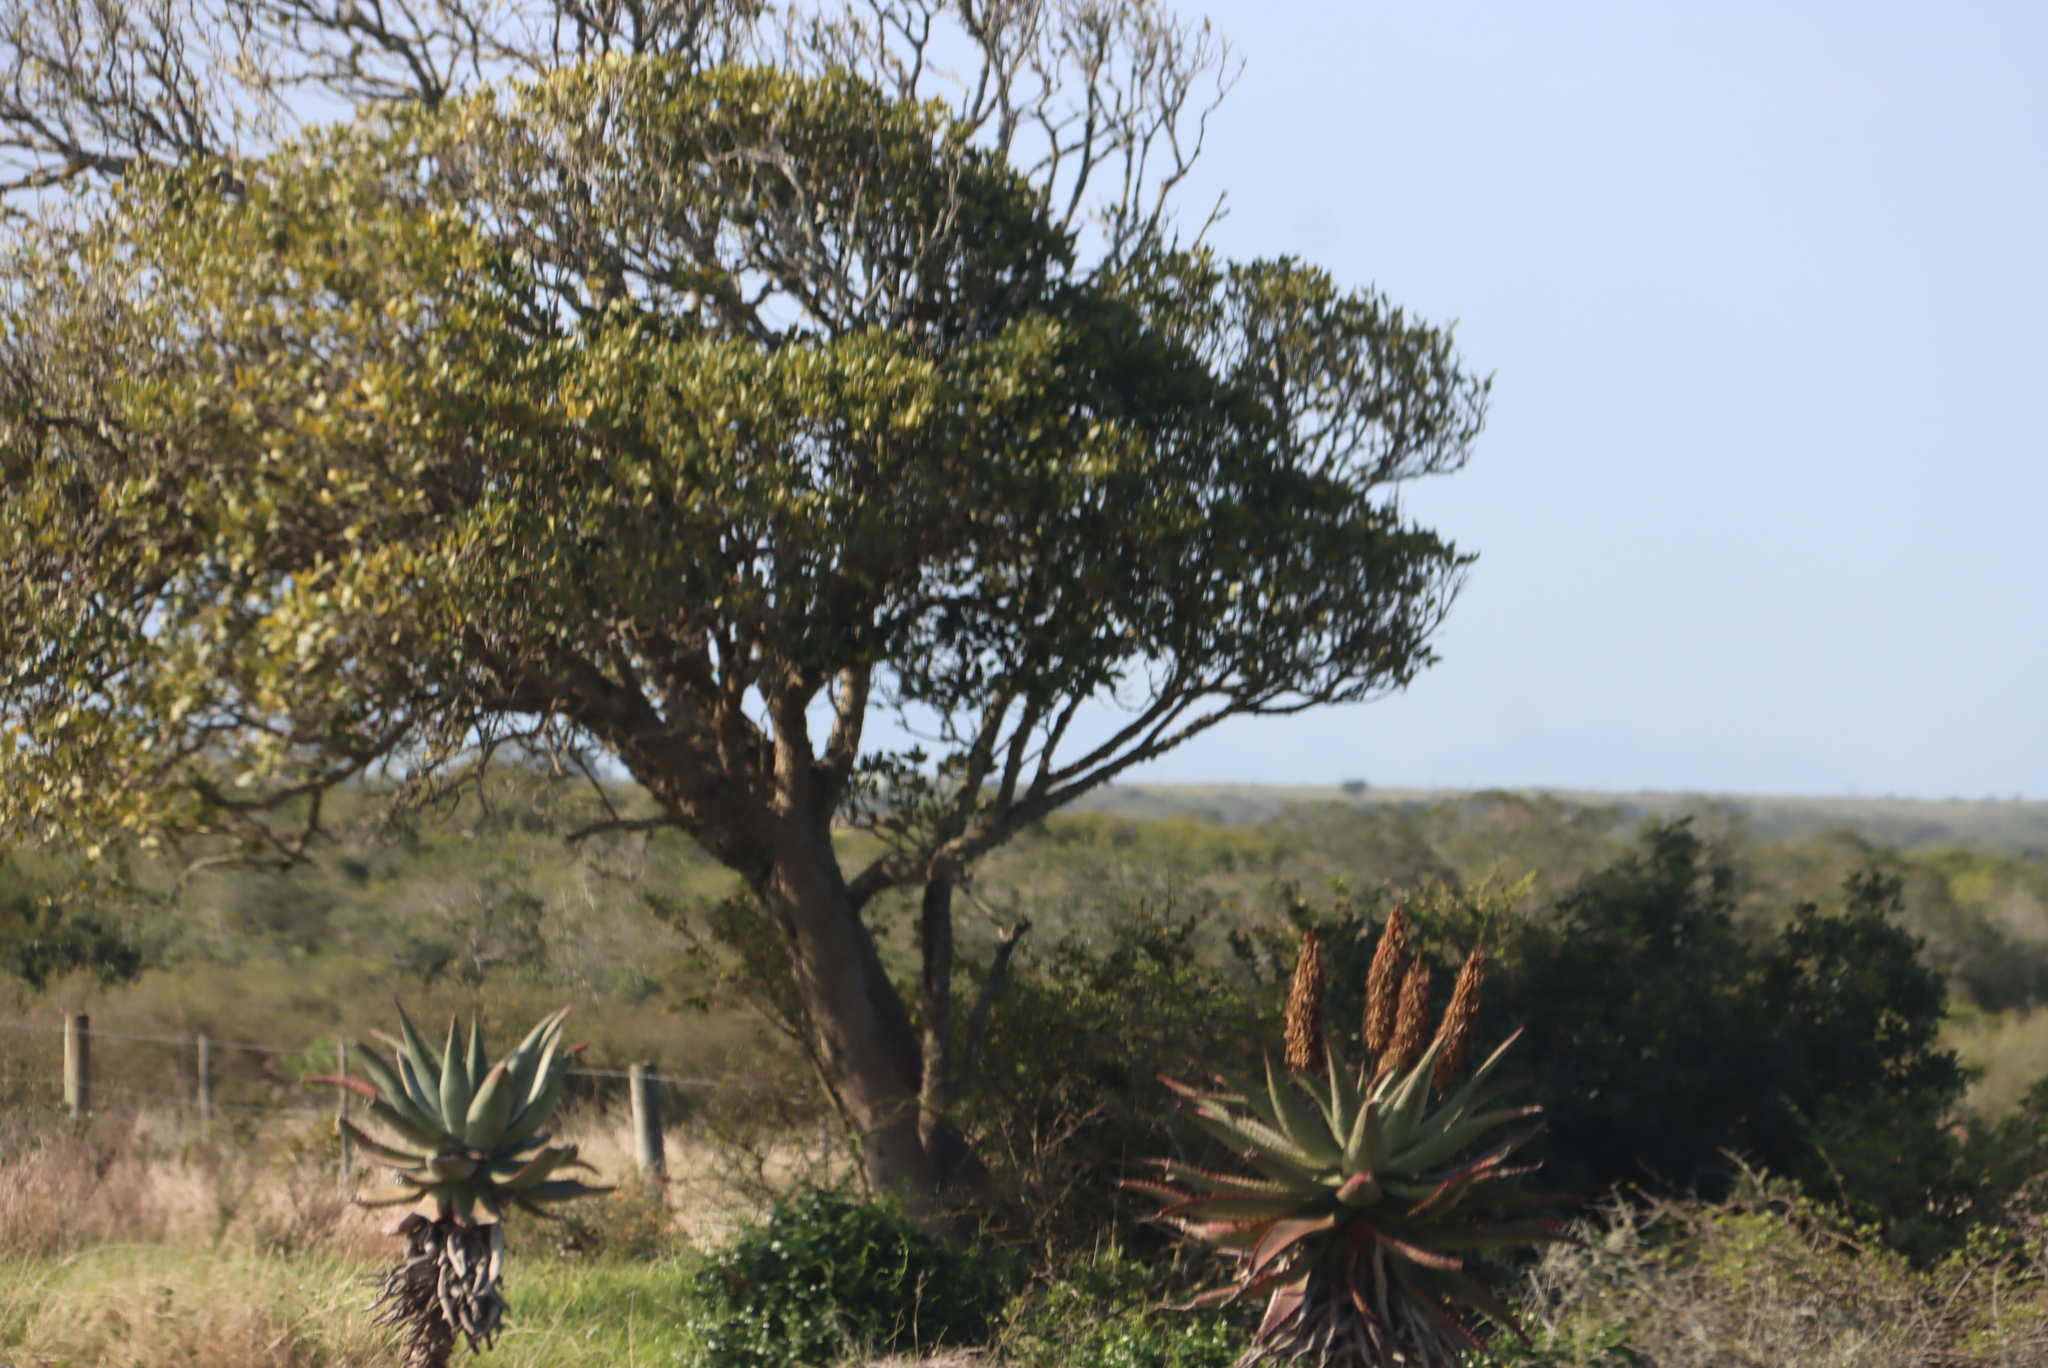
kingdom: Plantae
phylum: Tracheophyta
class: Liliopsida
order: Asparagales
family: Asphodelaceae
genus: Aloe
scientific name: Aloe ferox
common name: Bitter aloe
